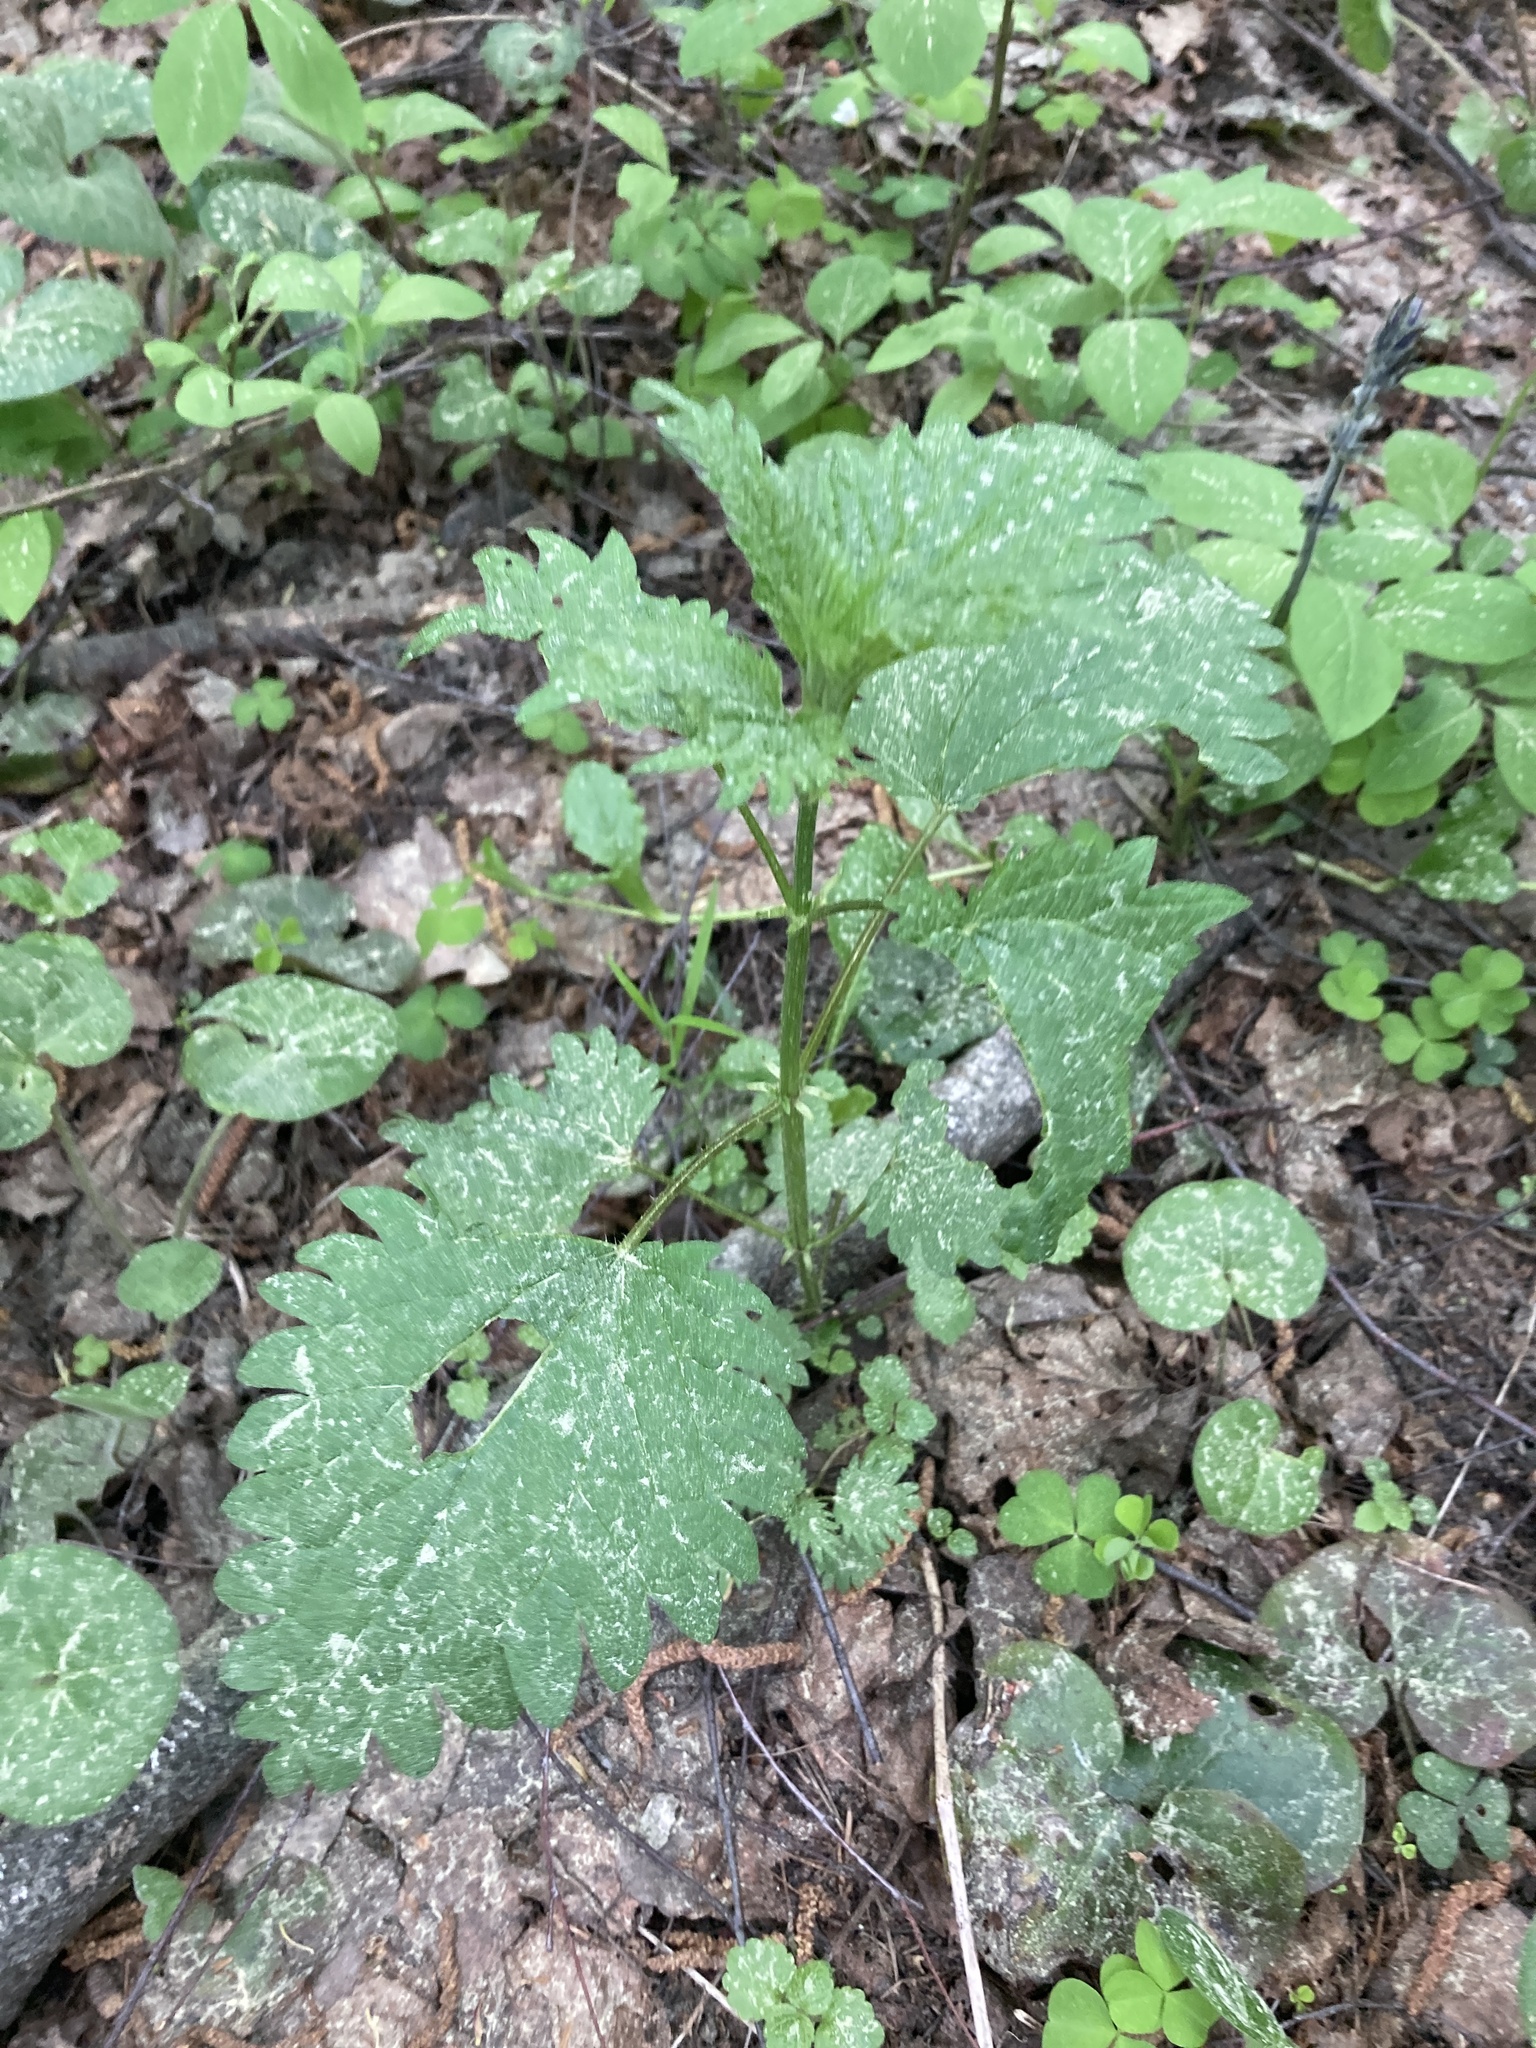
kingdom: Plantae
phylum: Tracheophyta
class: Magnoliopsida
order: Rosales
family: Urticaceae
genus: Urtica
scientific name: Urtica dioica
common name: Common nettle
